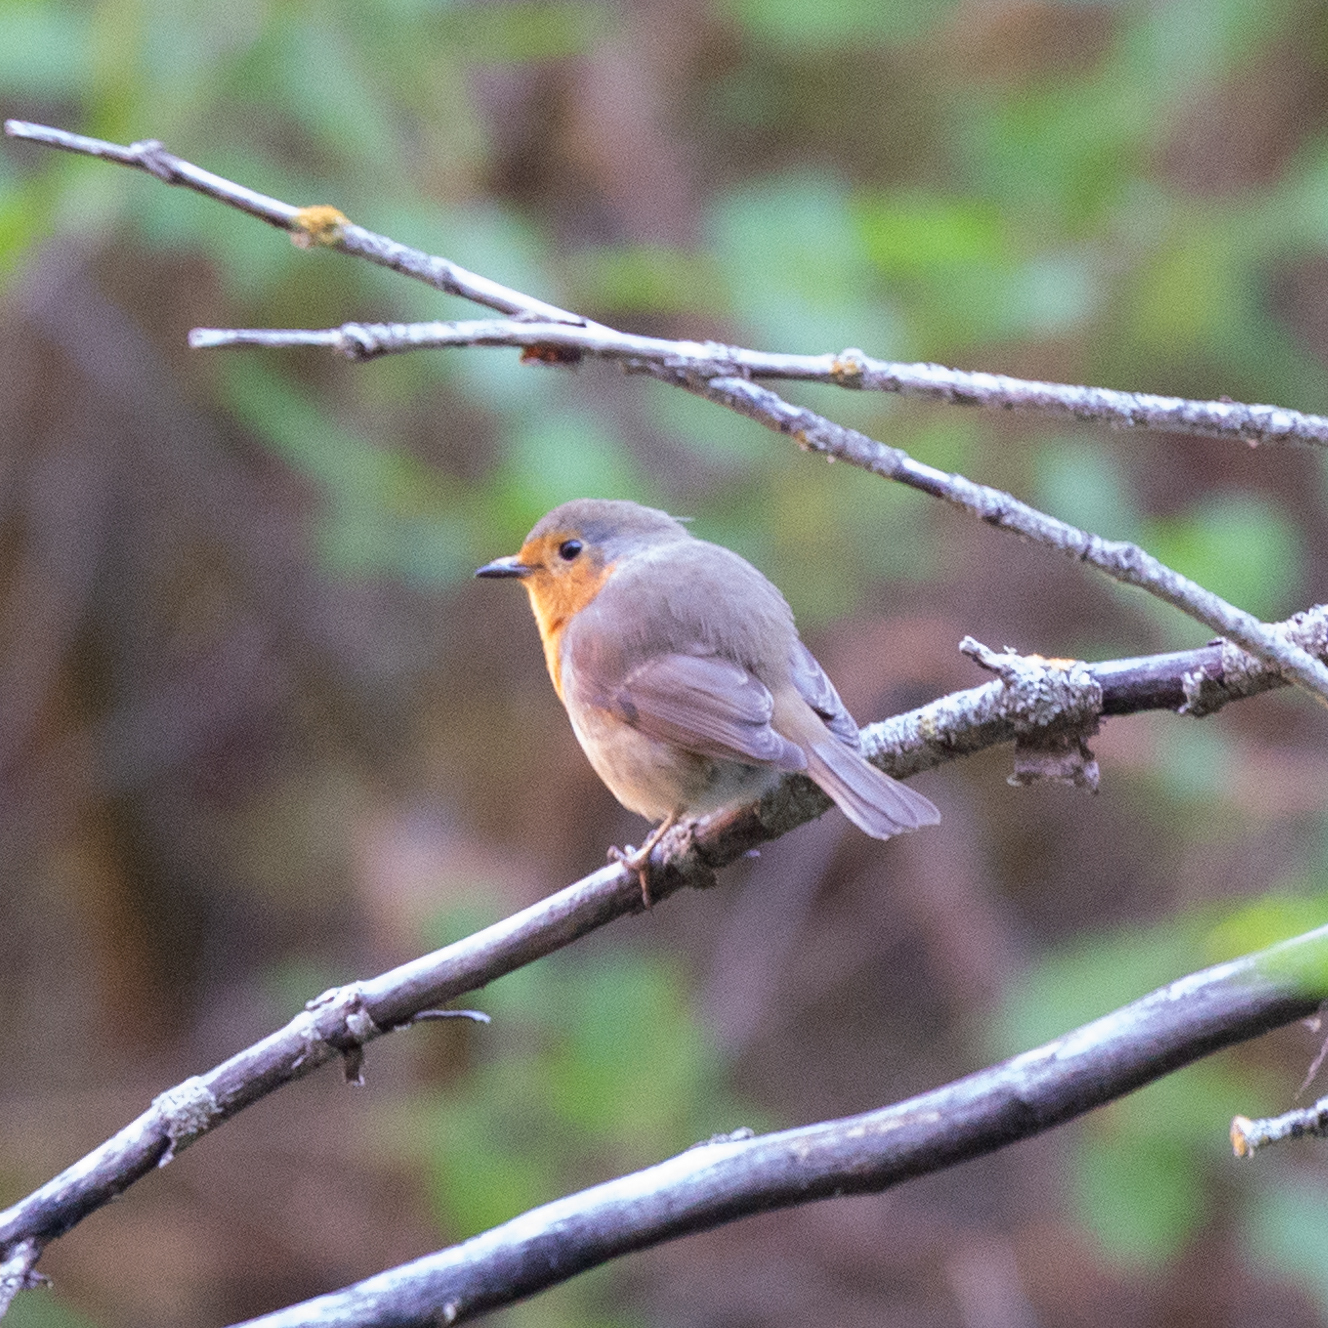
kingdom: Animalia
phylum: Chordata
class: Aves
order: Passeriformes
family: Muscicapidae
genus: Erithacus
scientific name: Erithacus rubecula
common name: European robin
